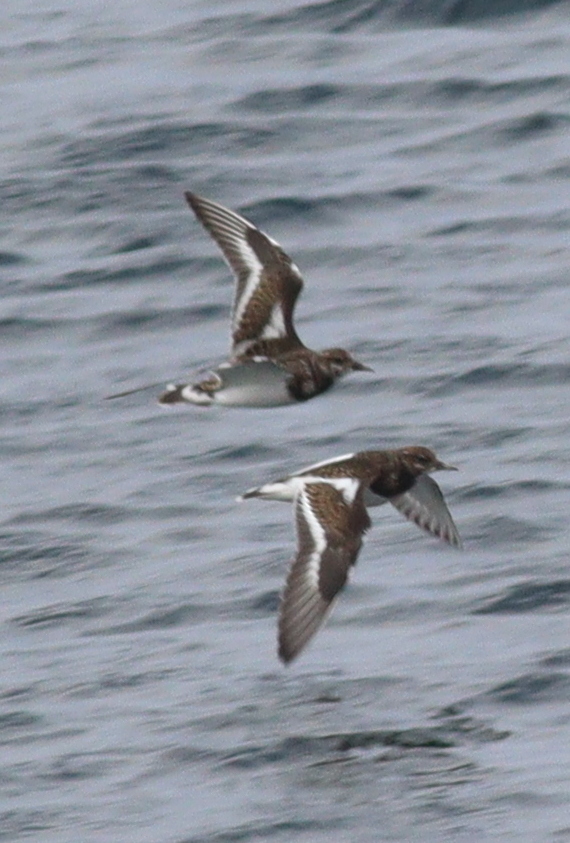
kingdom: Animalia
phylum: Chordata
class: Aves
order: Charadriiformes
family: Scolopacidae
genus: Arenaria
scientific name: Arenaria interpres
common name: Ruddy turnstone
